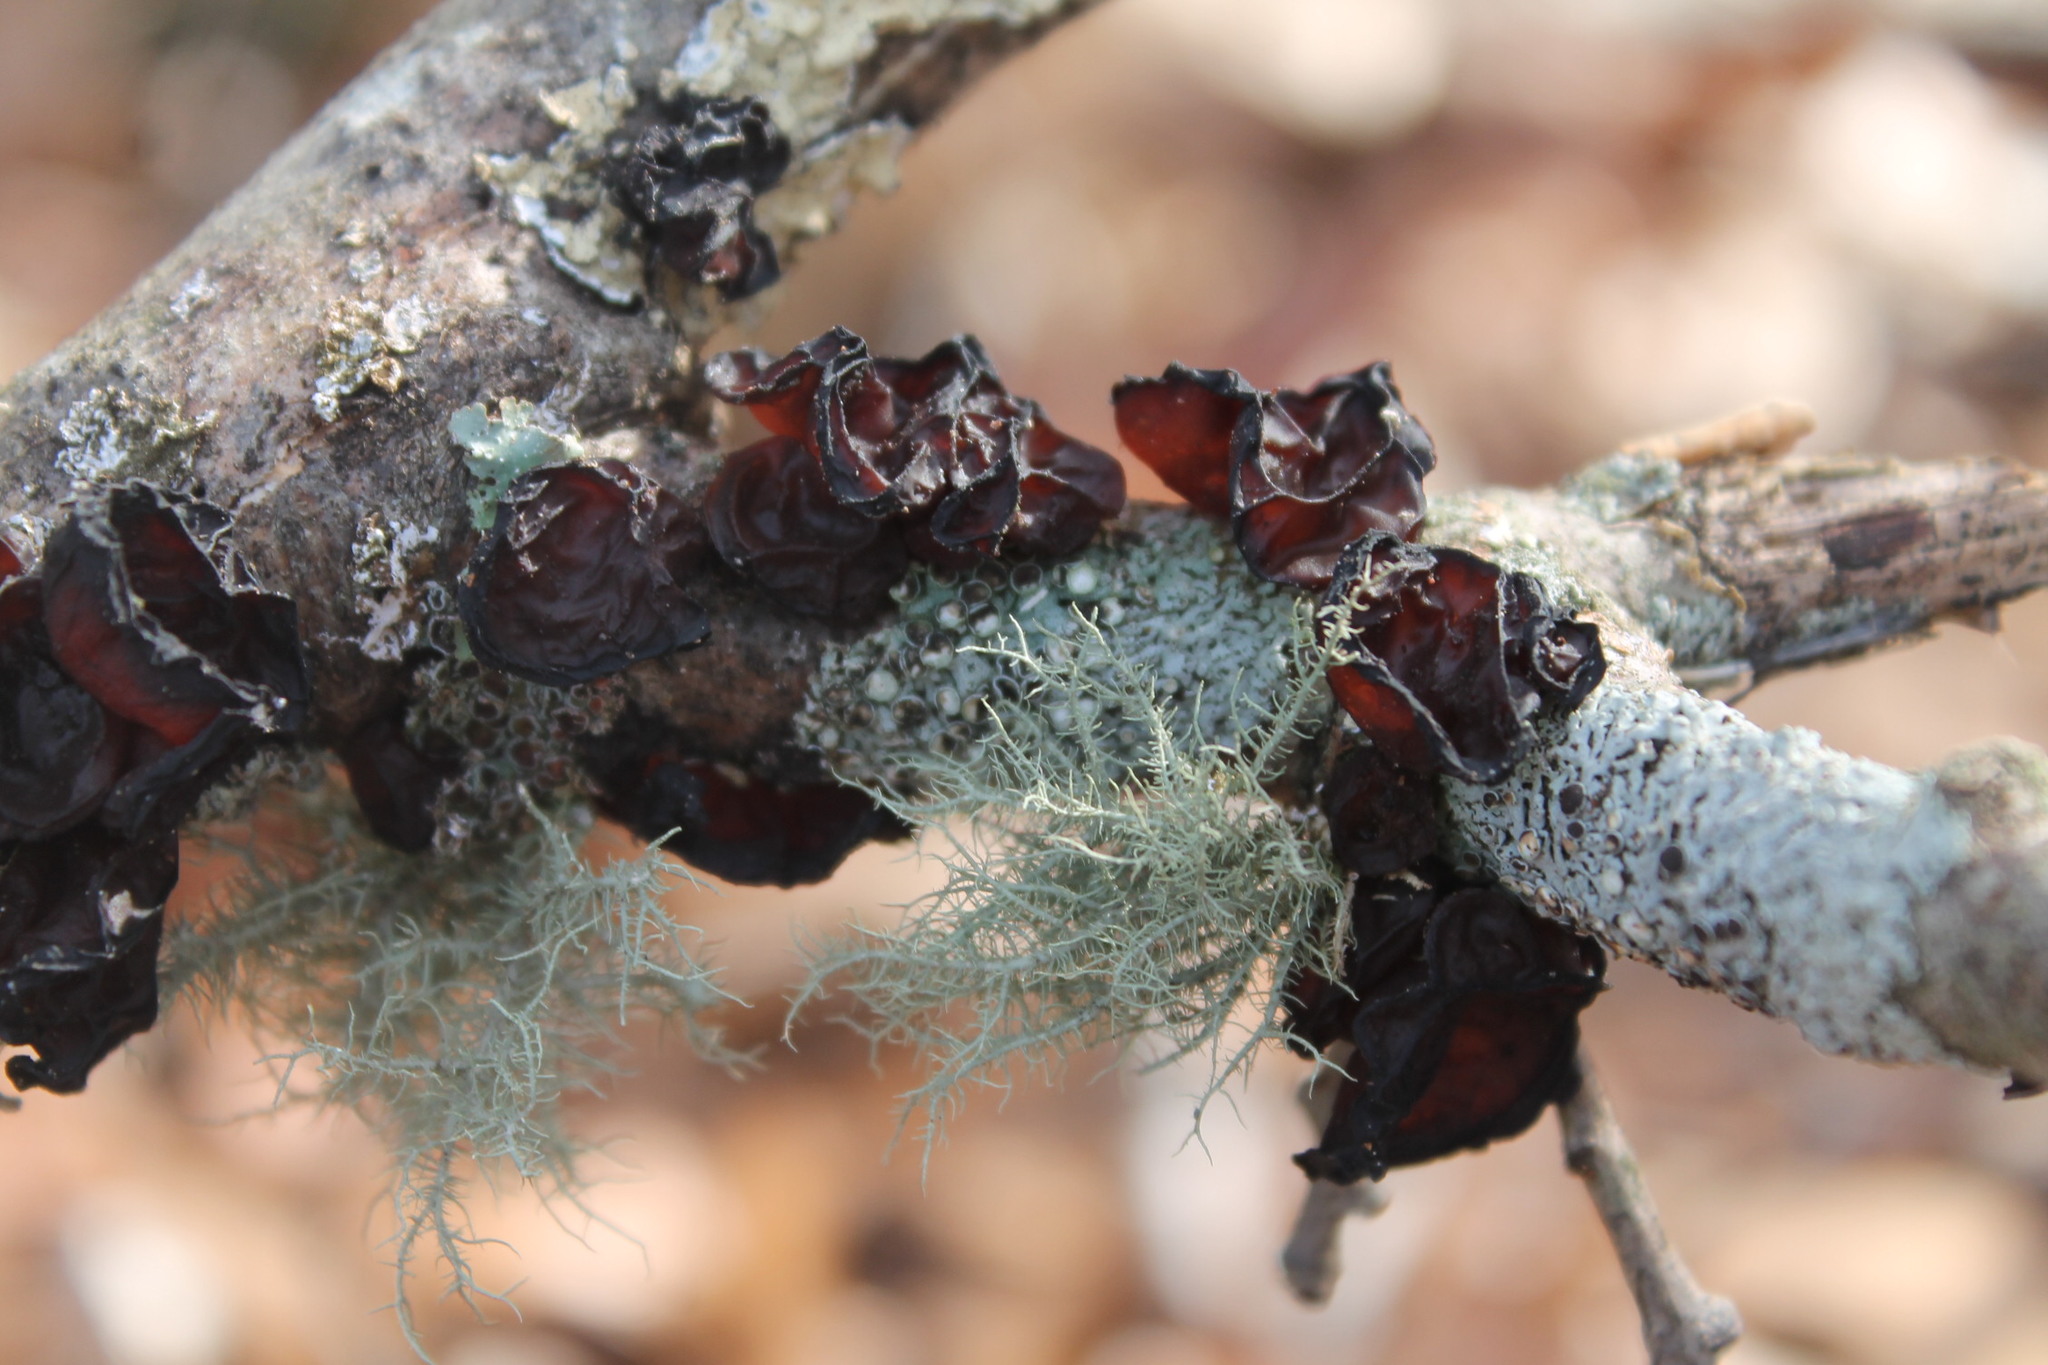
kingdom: Fungi
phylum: Basidiomycota
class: Agaricomycetes
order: Auriculariales
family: Auriculariaceae
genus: Exidia
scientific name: Exidia
